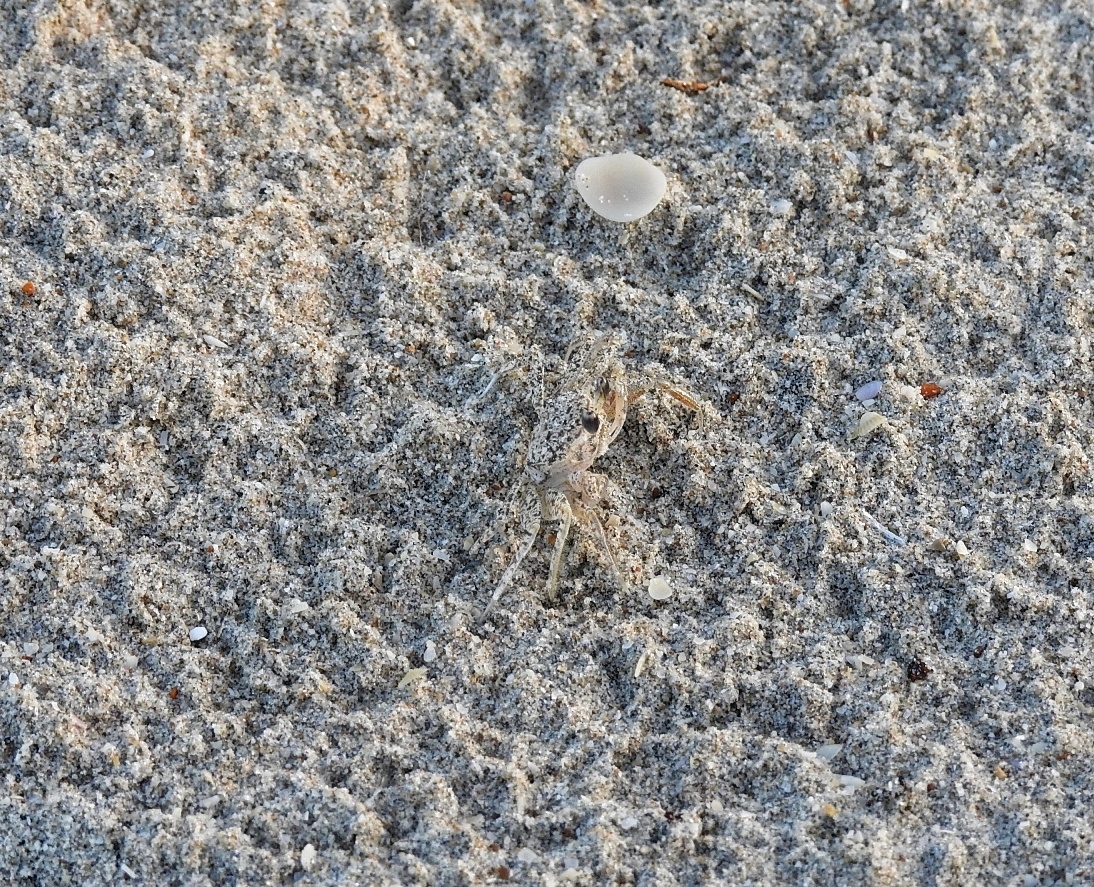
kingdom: Animalia
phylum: Arthropoda
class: Malacostraca
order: Decapoda
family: Ocypodidae
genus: Ocypode
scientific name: Ocypode quadrata
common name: Ghost crab
